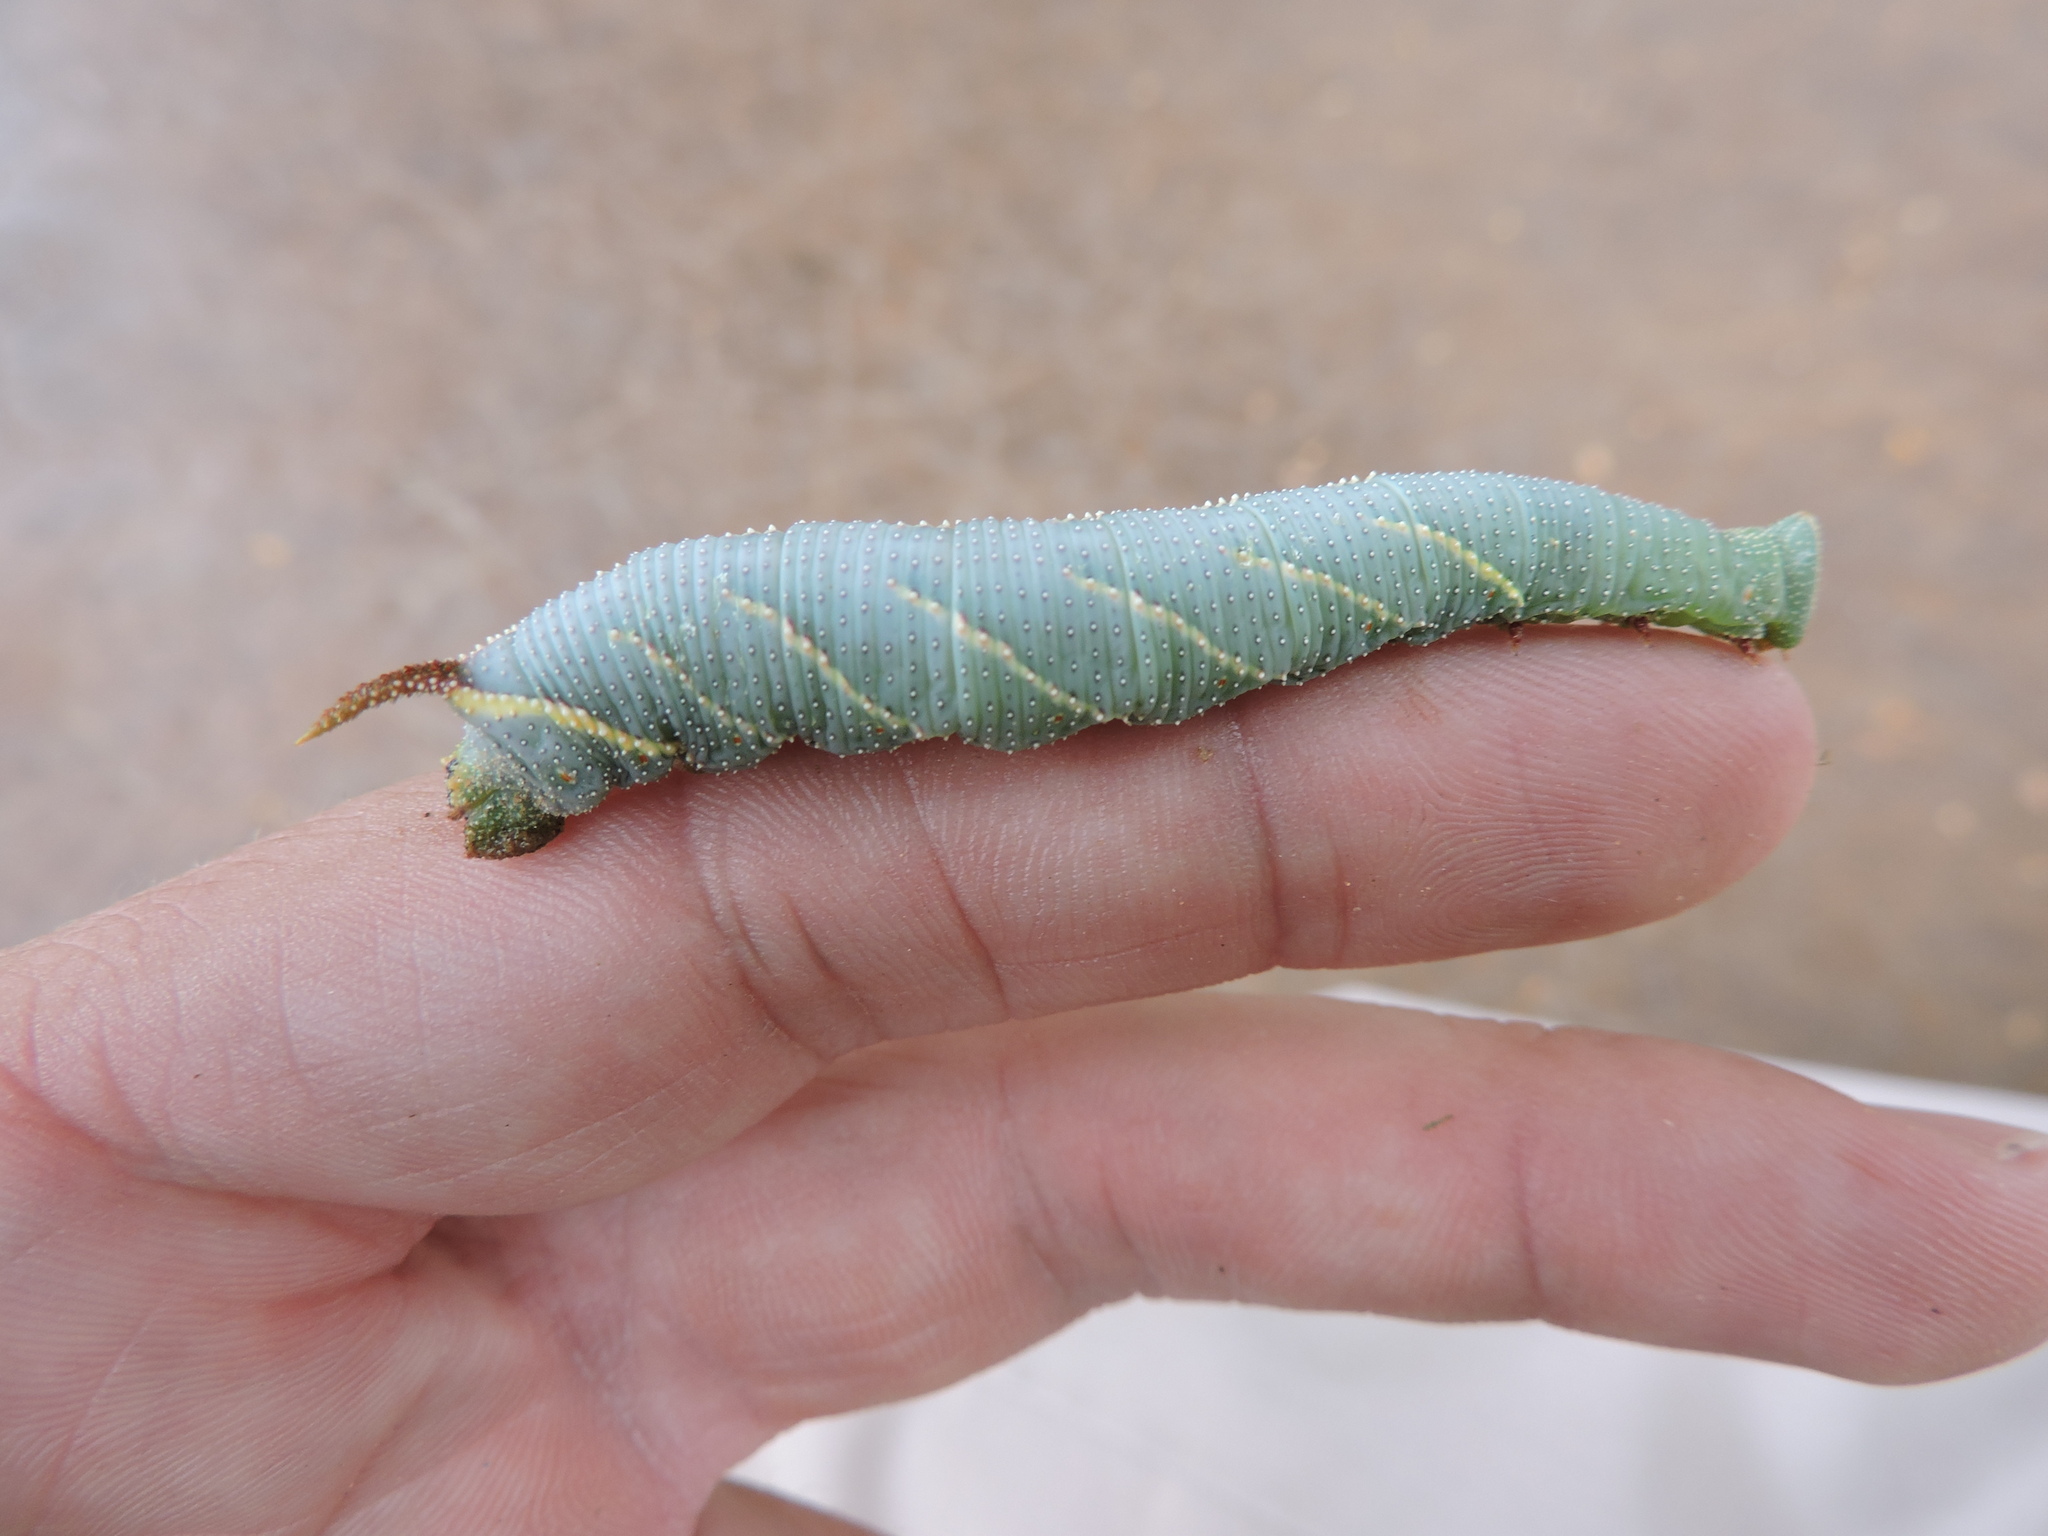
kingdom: Animalia
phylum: Arthropoda
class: Insecta
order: Lepidoptera
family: Sphingidae
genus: Amorpha
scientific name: Amorpha juglandis
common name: Walnut sphinx
